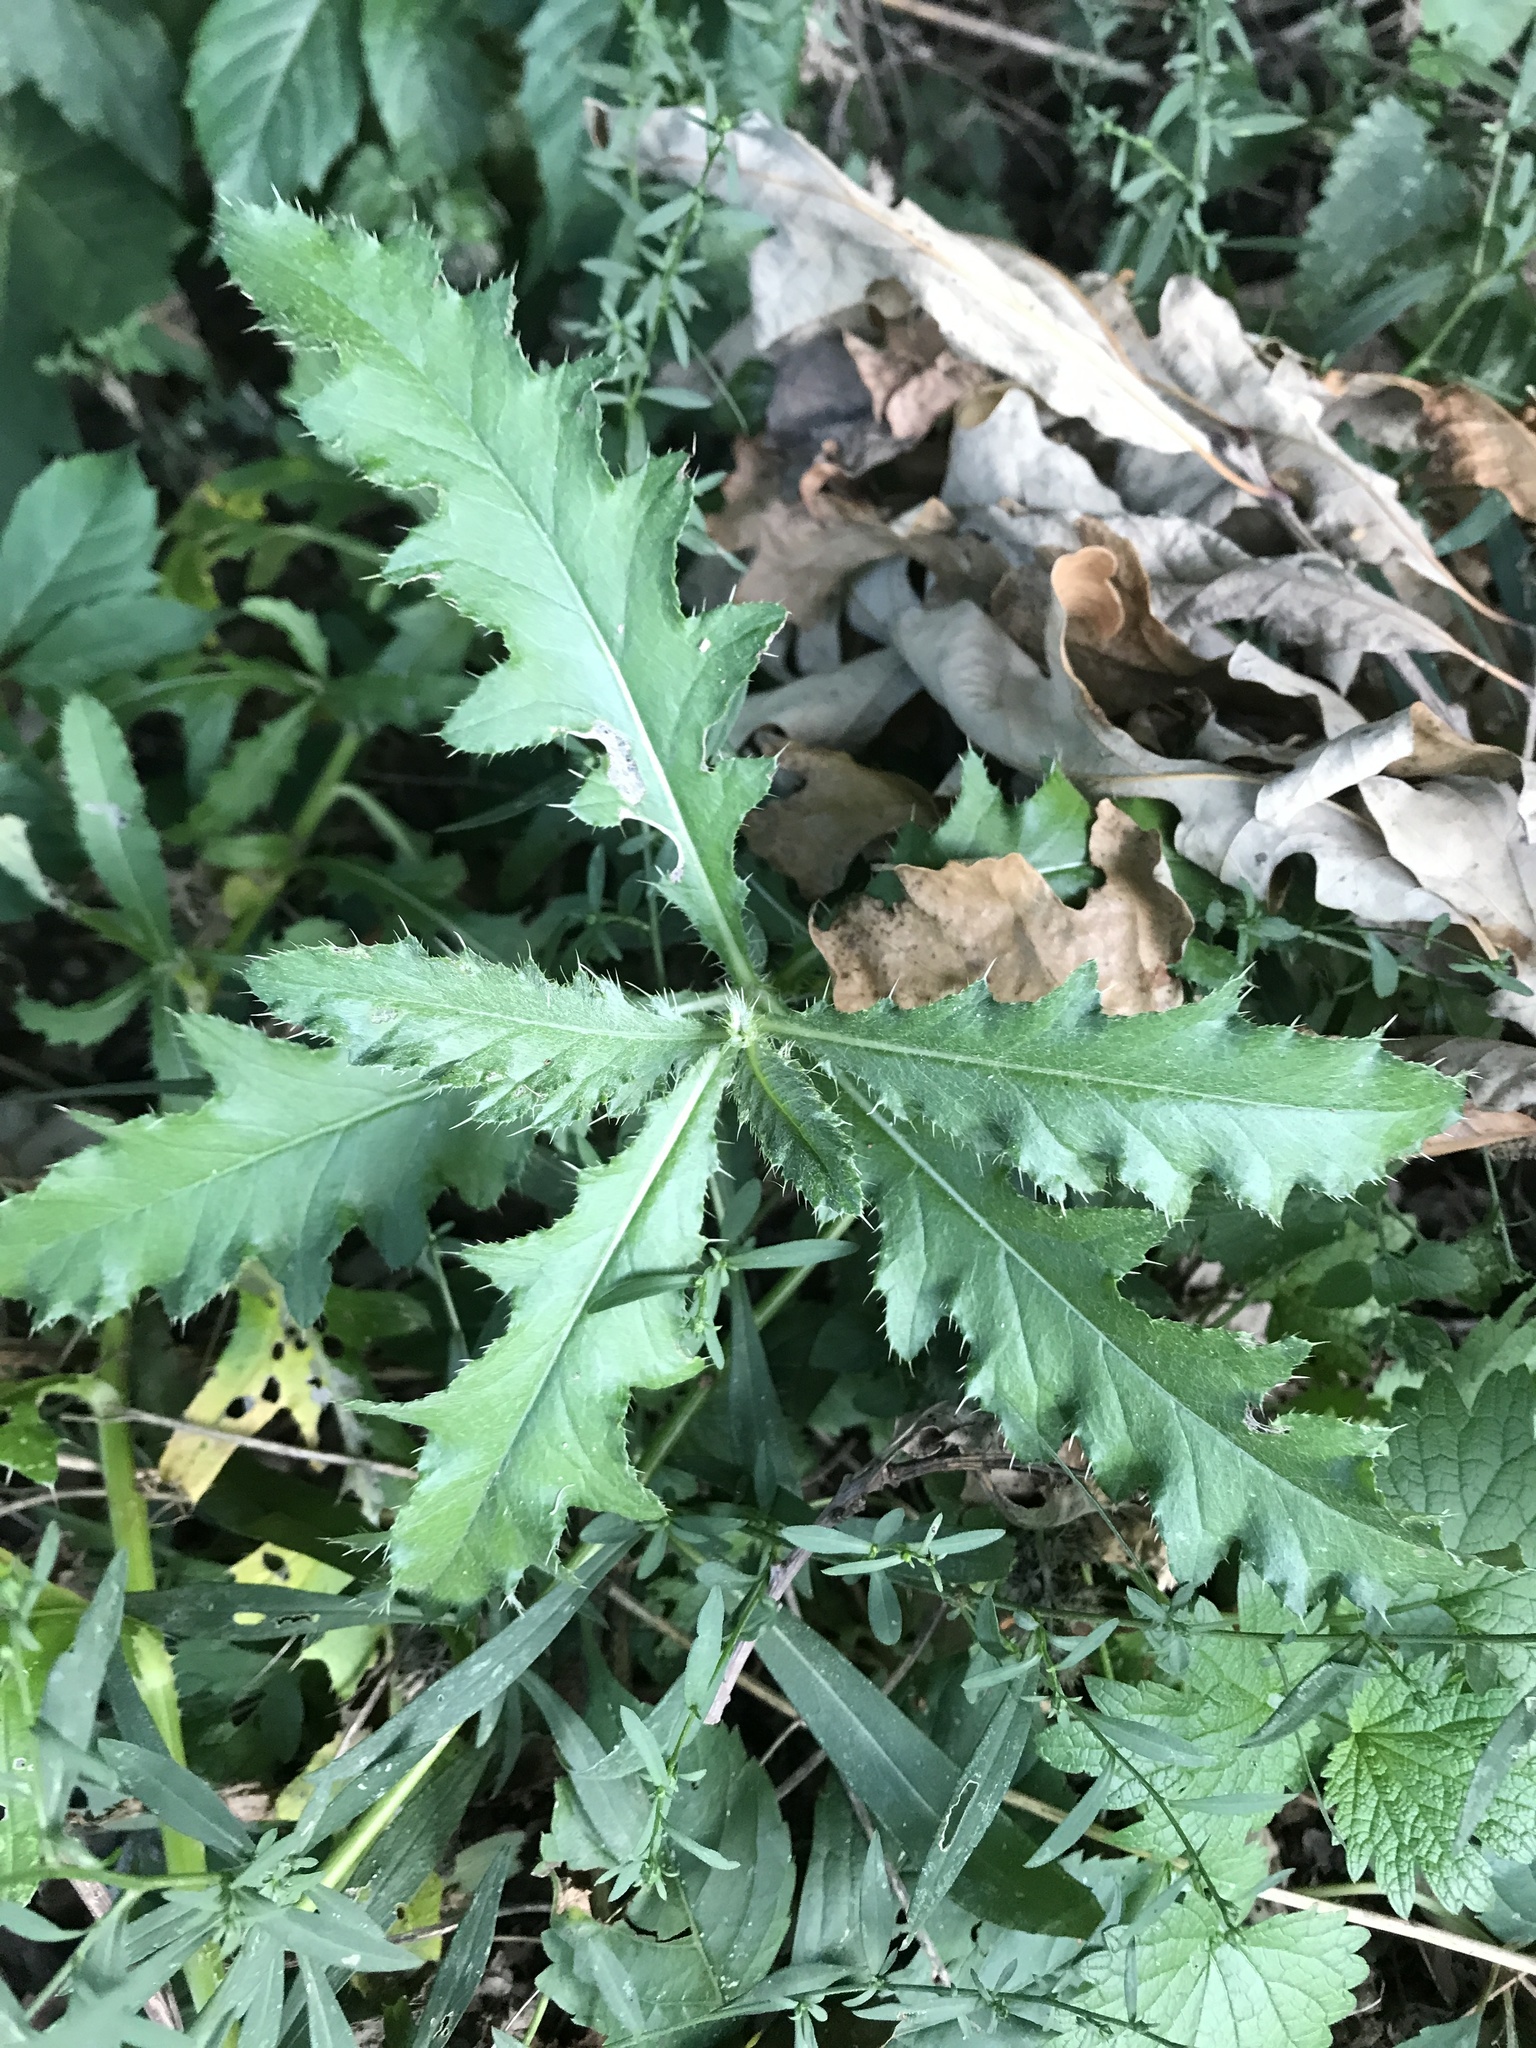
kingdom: Plantae
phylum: Tracheophyta
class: Magnoliopsida
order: Asterales
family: Asteraceae
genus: Cirsium
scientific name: Cirsium arvense
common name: Creeping thistle
